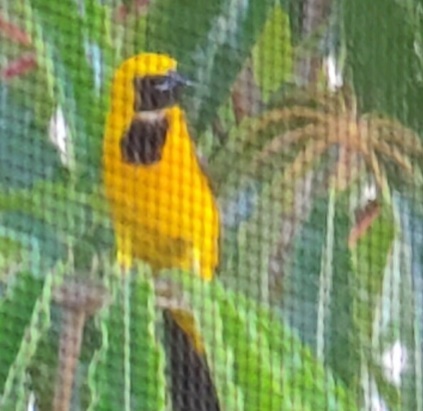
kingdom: Animalia
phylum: Chordata
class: Aves
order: Passeriformes
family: Icteridae
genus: Icterus
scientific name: Icterus cucullatus
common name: Hooded oriole
